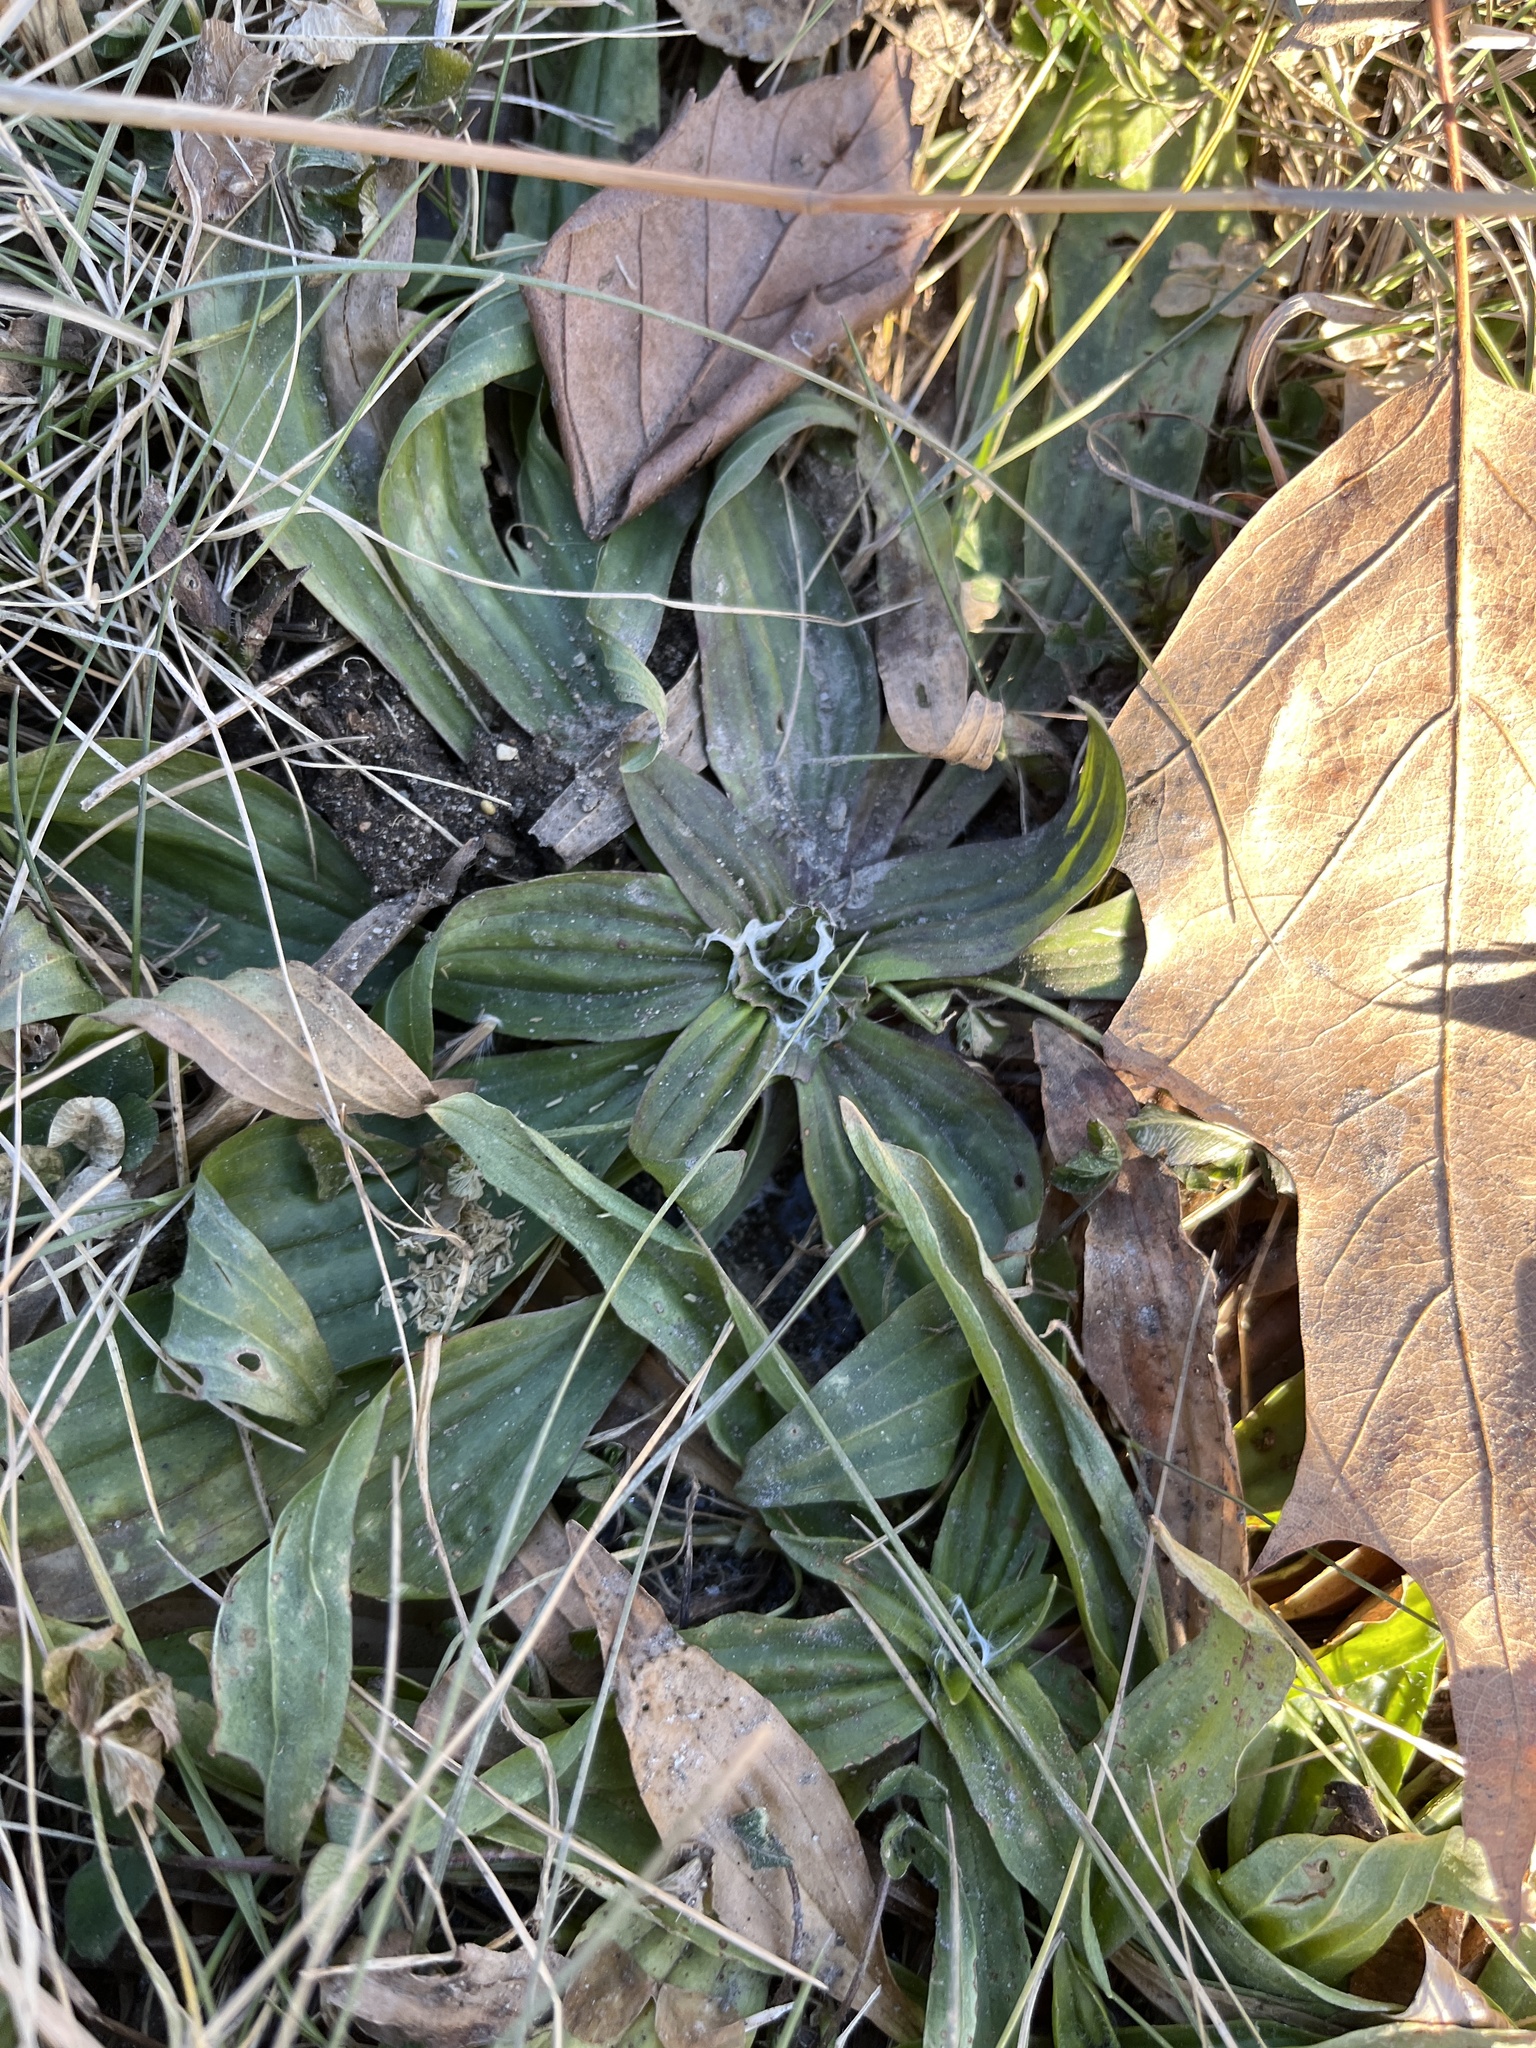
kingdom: Plantae
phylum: Tracheophyta
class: Magnoliopsida
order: Lamiales
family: Plantaginaceae
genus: Plantago
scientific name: Plantago lanceolata
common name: Ribwort plantain
